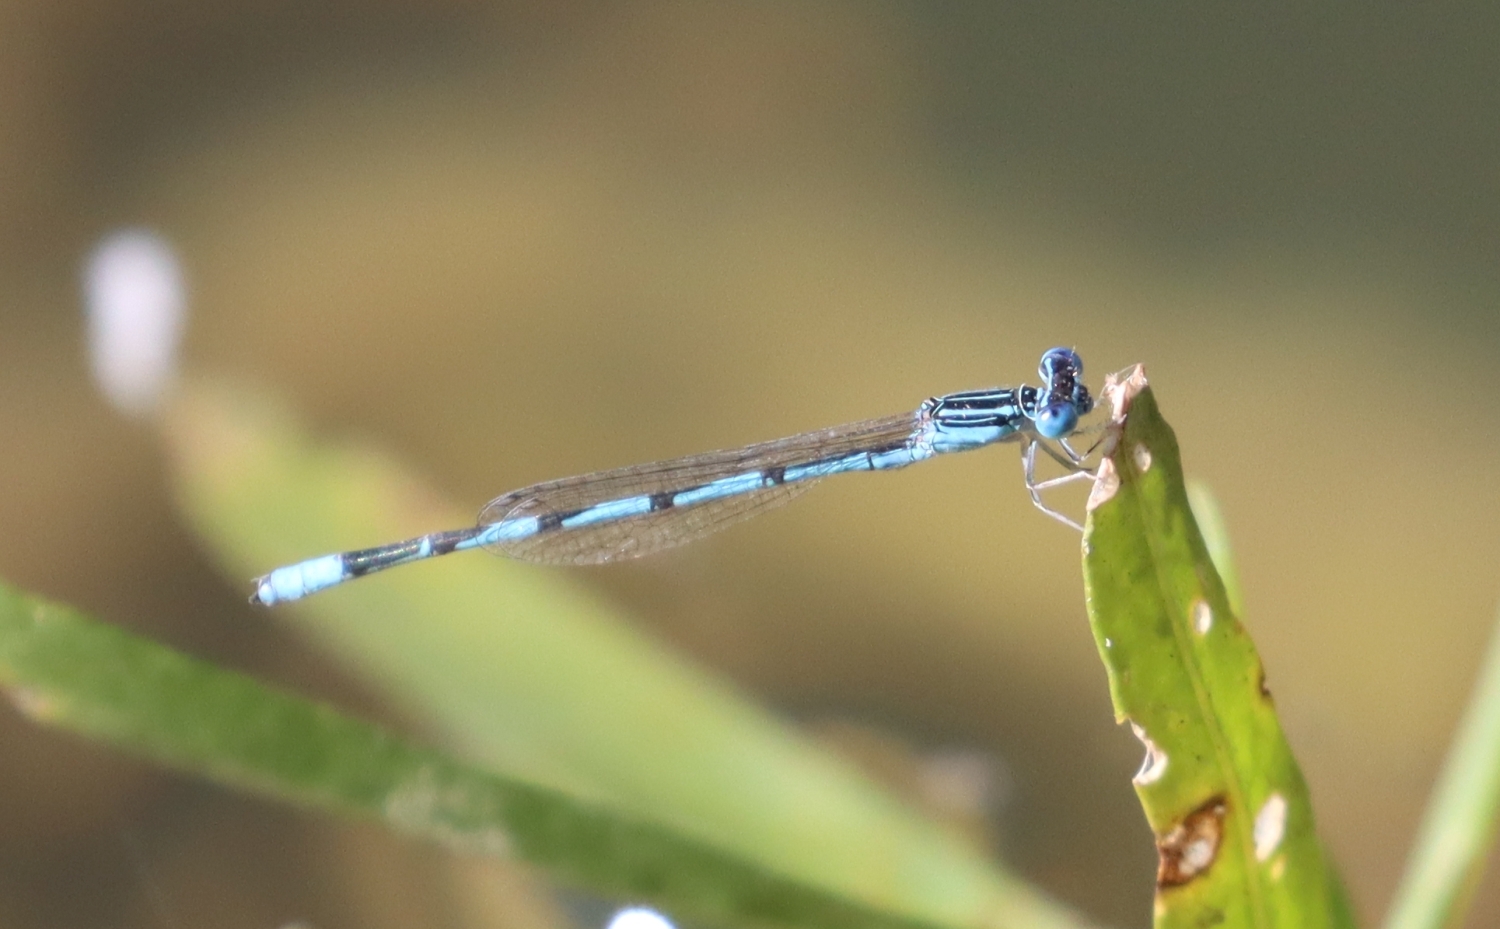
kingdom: Animalia
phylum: Arthropoda
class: Insecta
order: Odonata
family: Coenagrionidae
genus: Enallagma
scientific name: Enallagma basidens
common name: Double-striped bluet
